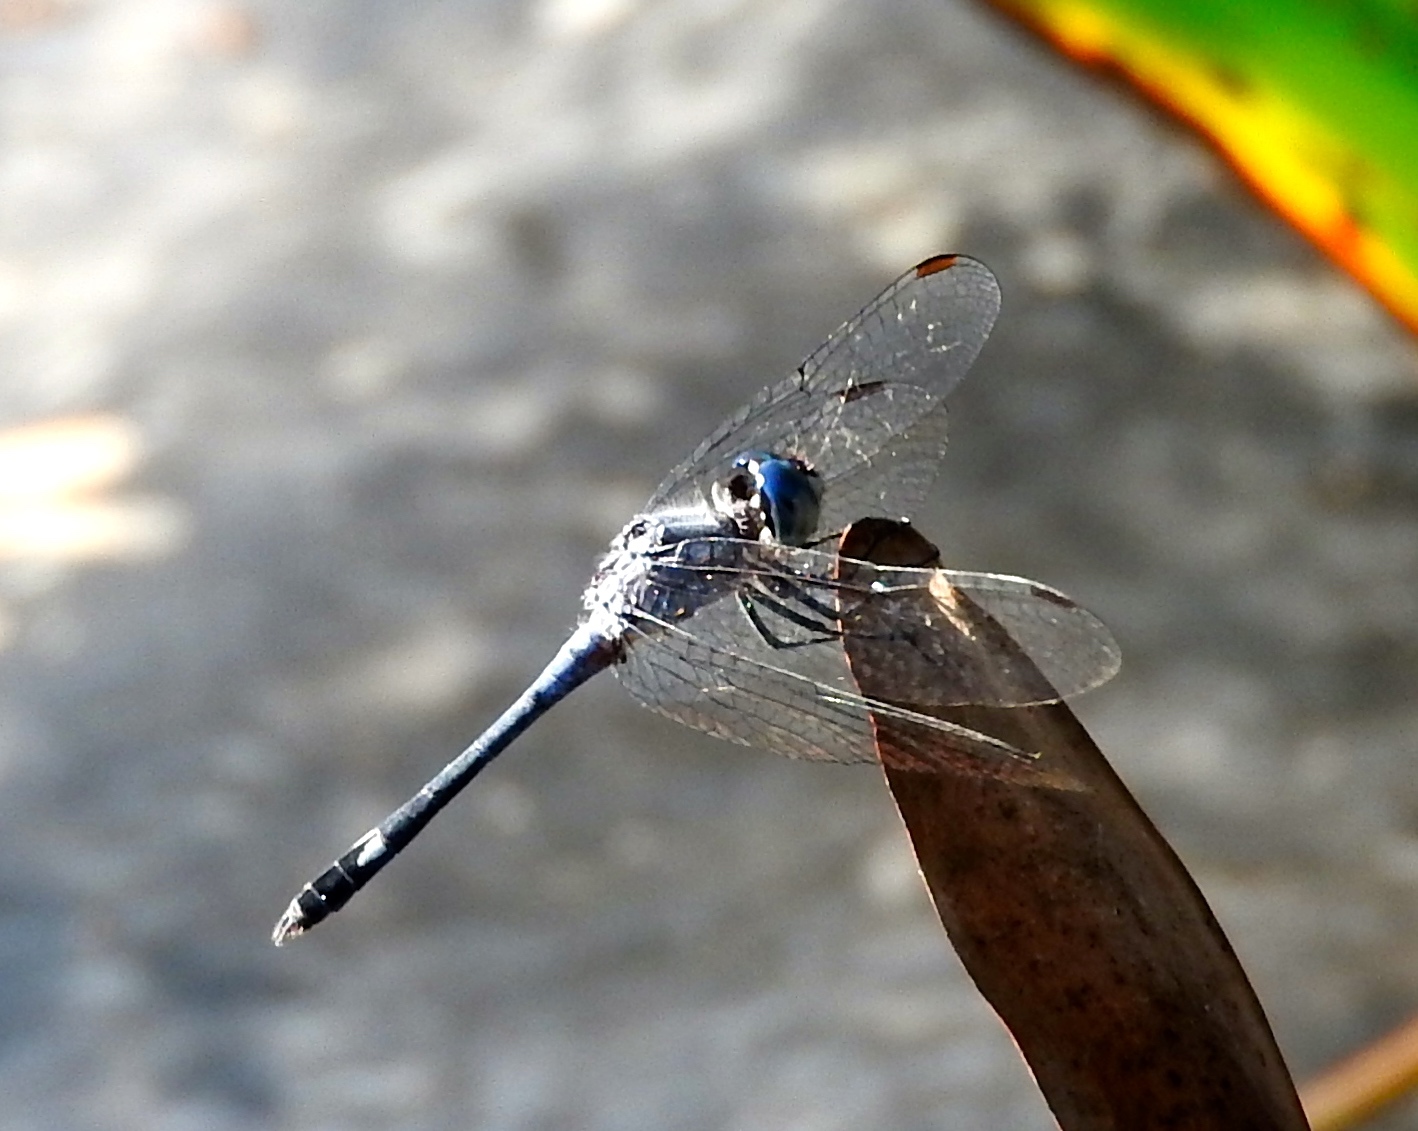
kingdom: Animalia
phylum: Arthropoda
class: Insecta
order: Odonata
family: Libellulidae
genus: Micrathyria
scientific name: Micrathyria aequalis
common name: Spot-tailed dasher
